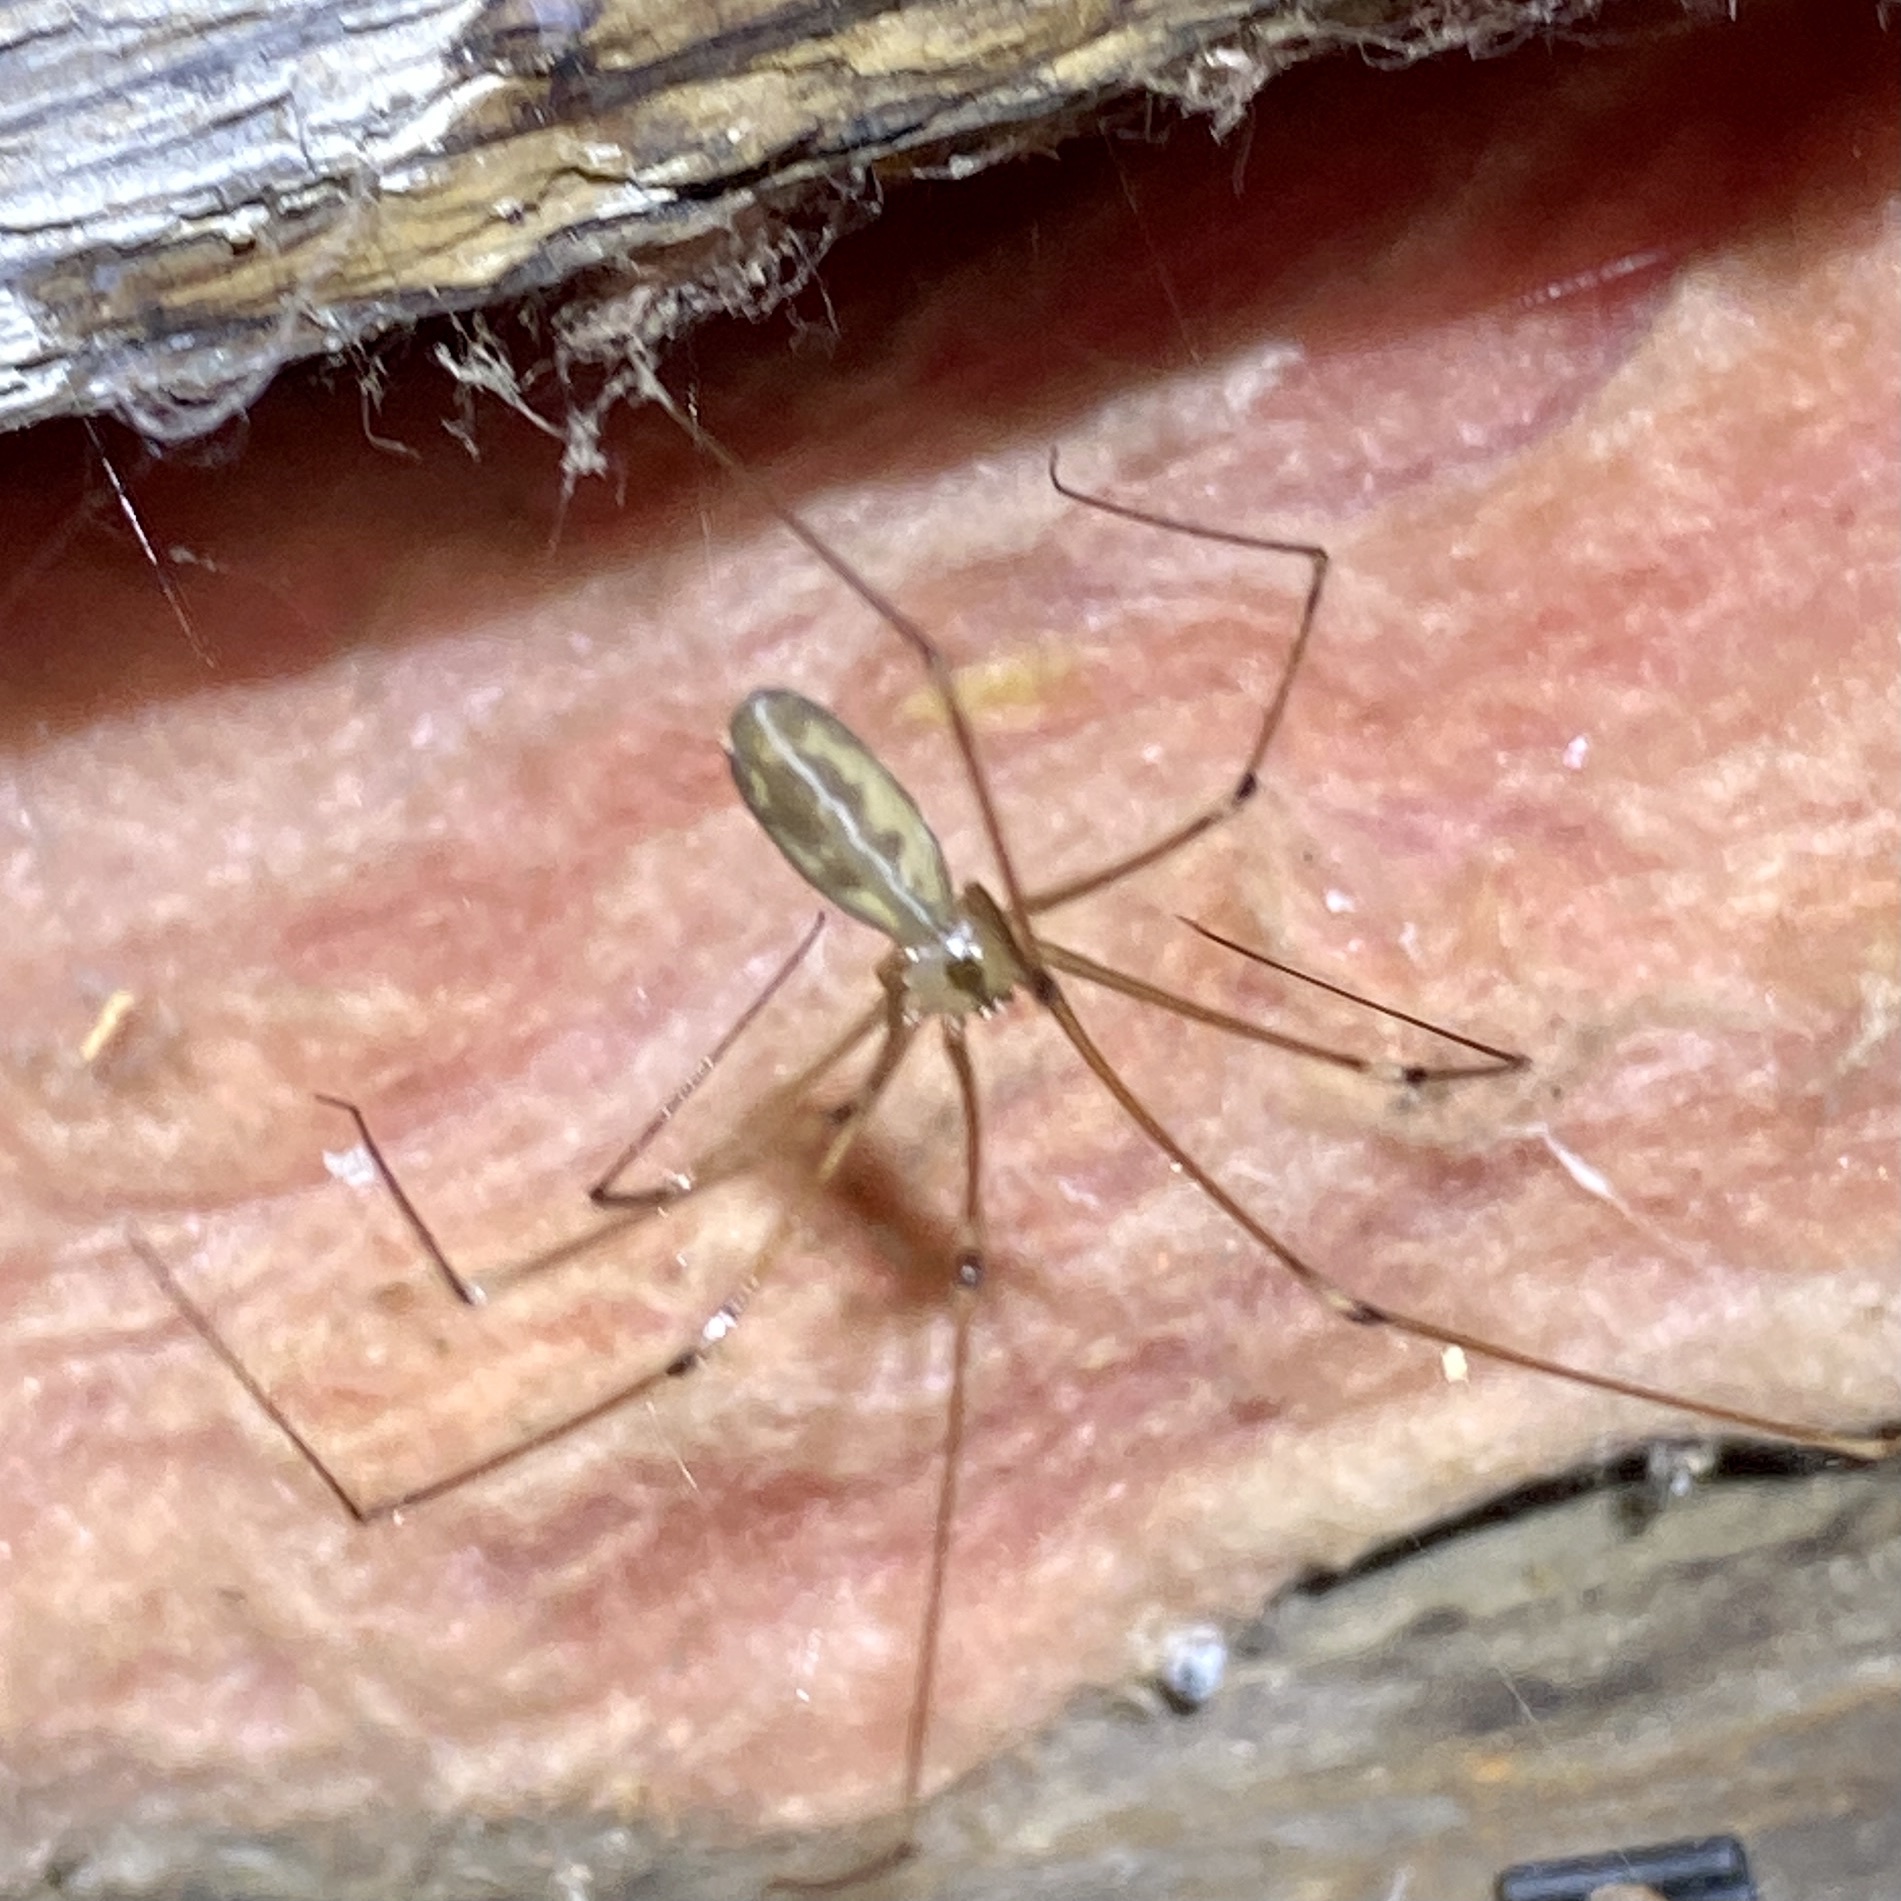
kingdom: Animalia
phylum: Arthropoda
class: Arachnida
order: Araneae
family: Pholcidae
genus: Pholcus
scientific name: Pholcus phalangioides
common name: Longbodied cellar spider
